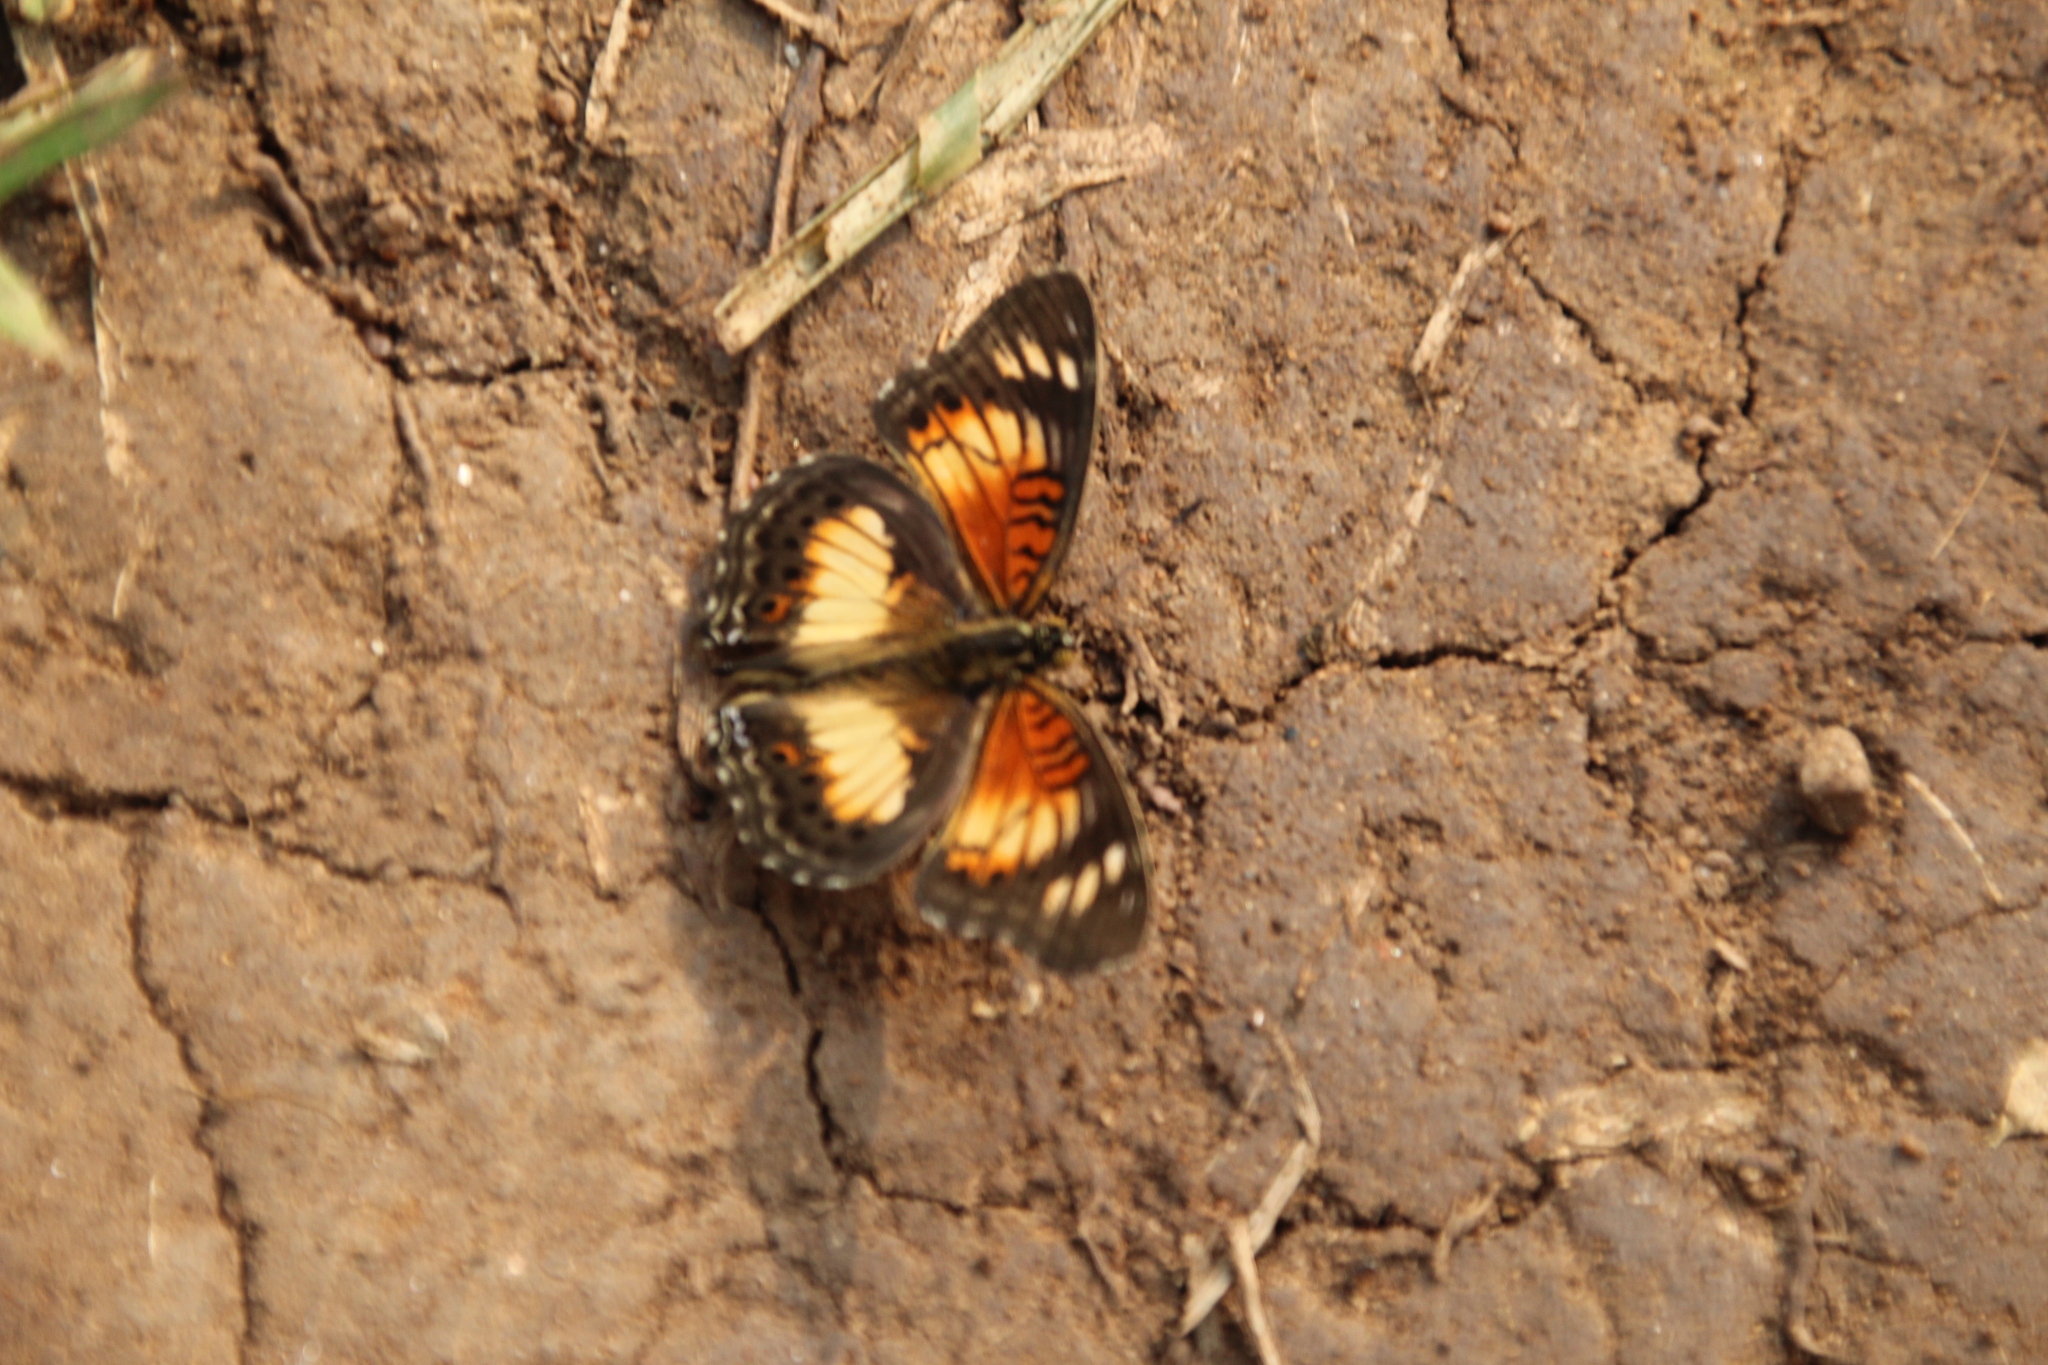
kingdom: Animalia
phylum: Arthropoda
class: Insecta
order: Lepidoptera
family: Nymphalidae
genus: Junonia
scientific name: Junonia sophia
